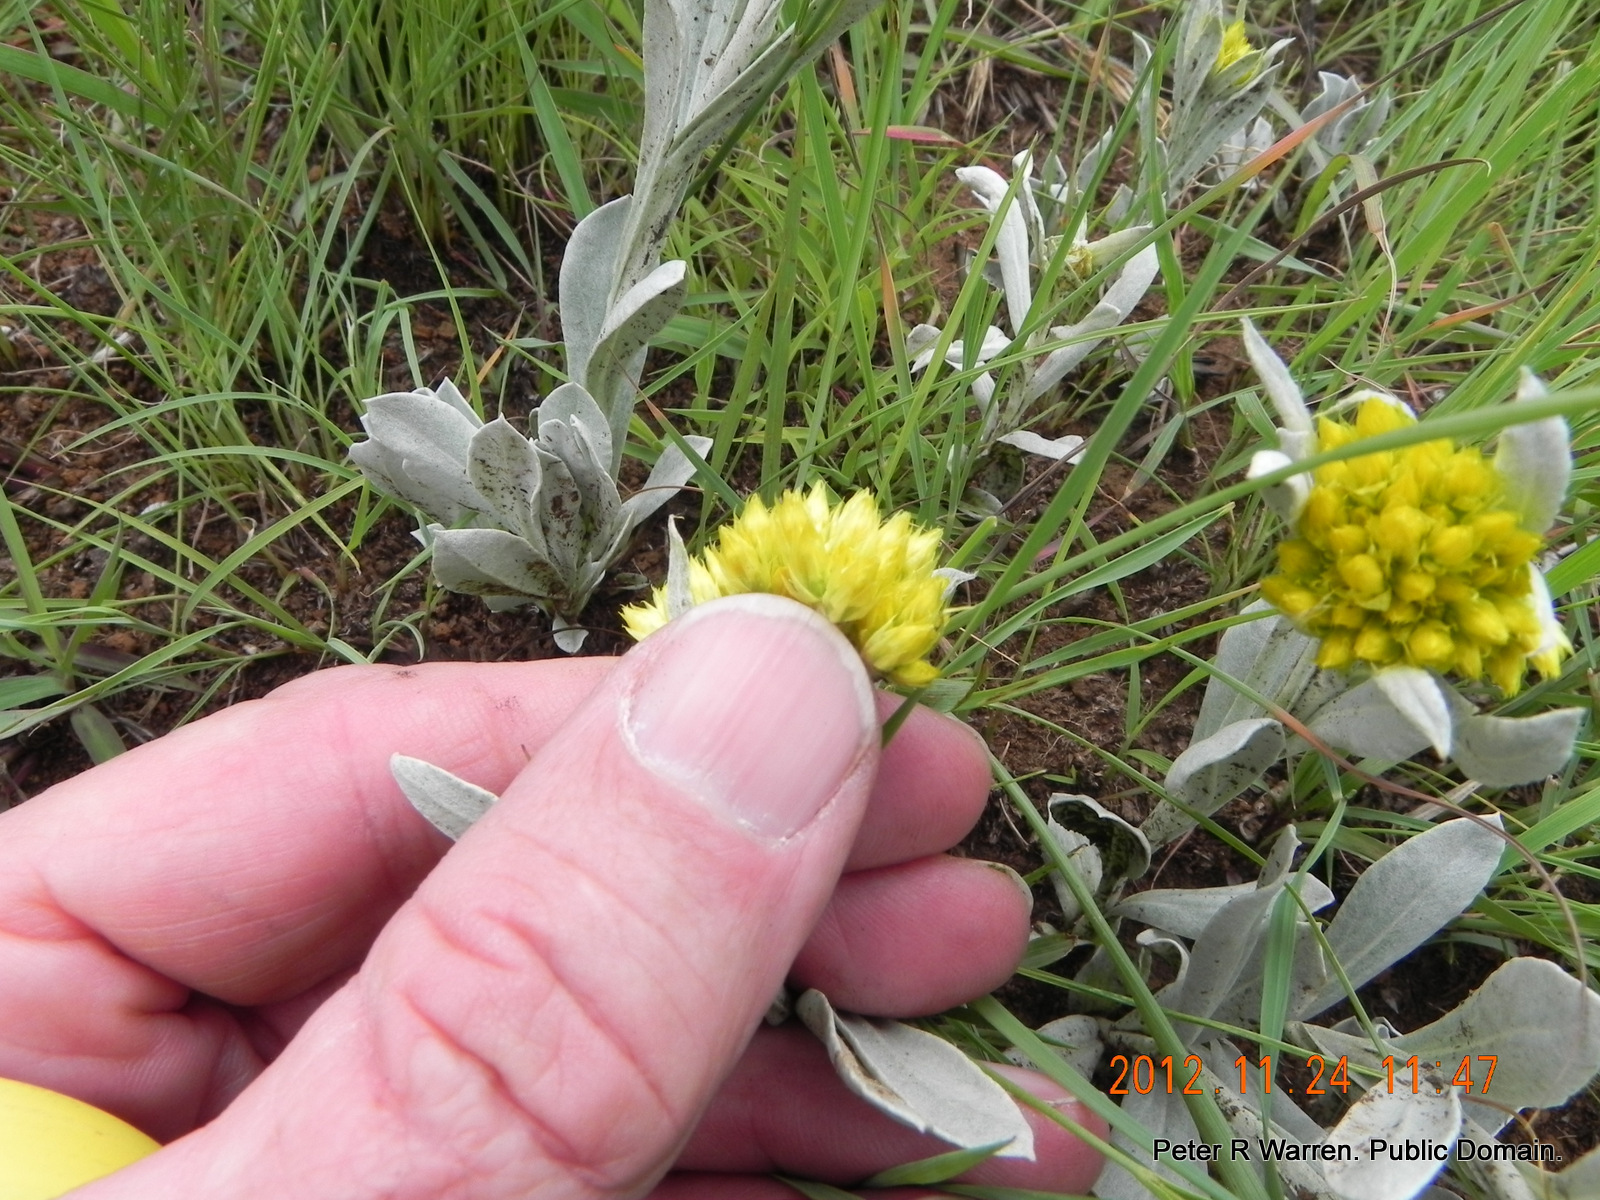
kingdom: Plantae
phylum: Tracheophyta
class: Magnoliopsida
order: Asterales
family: Asteraceae
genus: Helichrysum
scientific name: Helichrysum oreophilum
